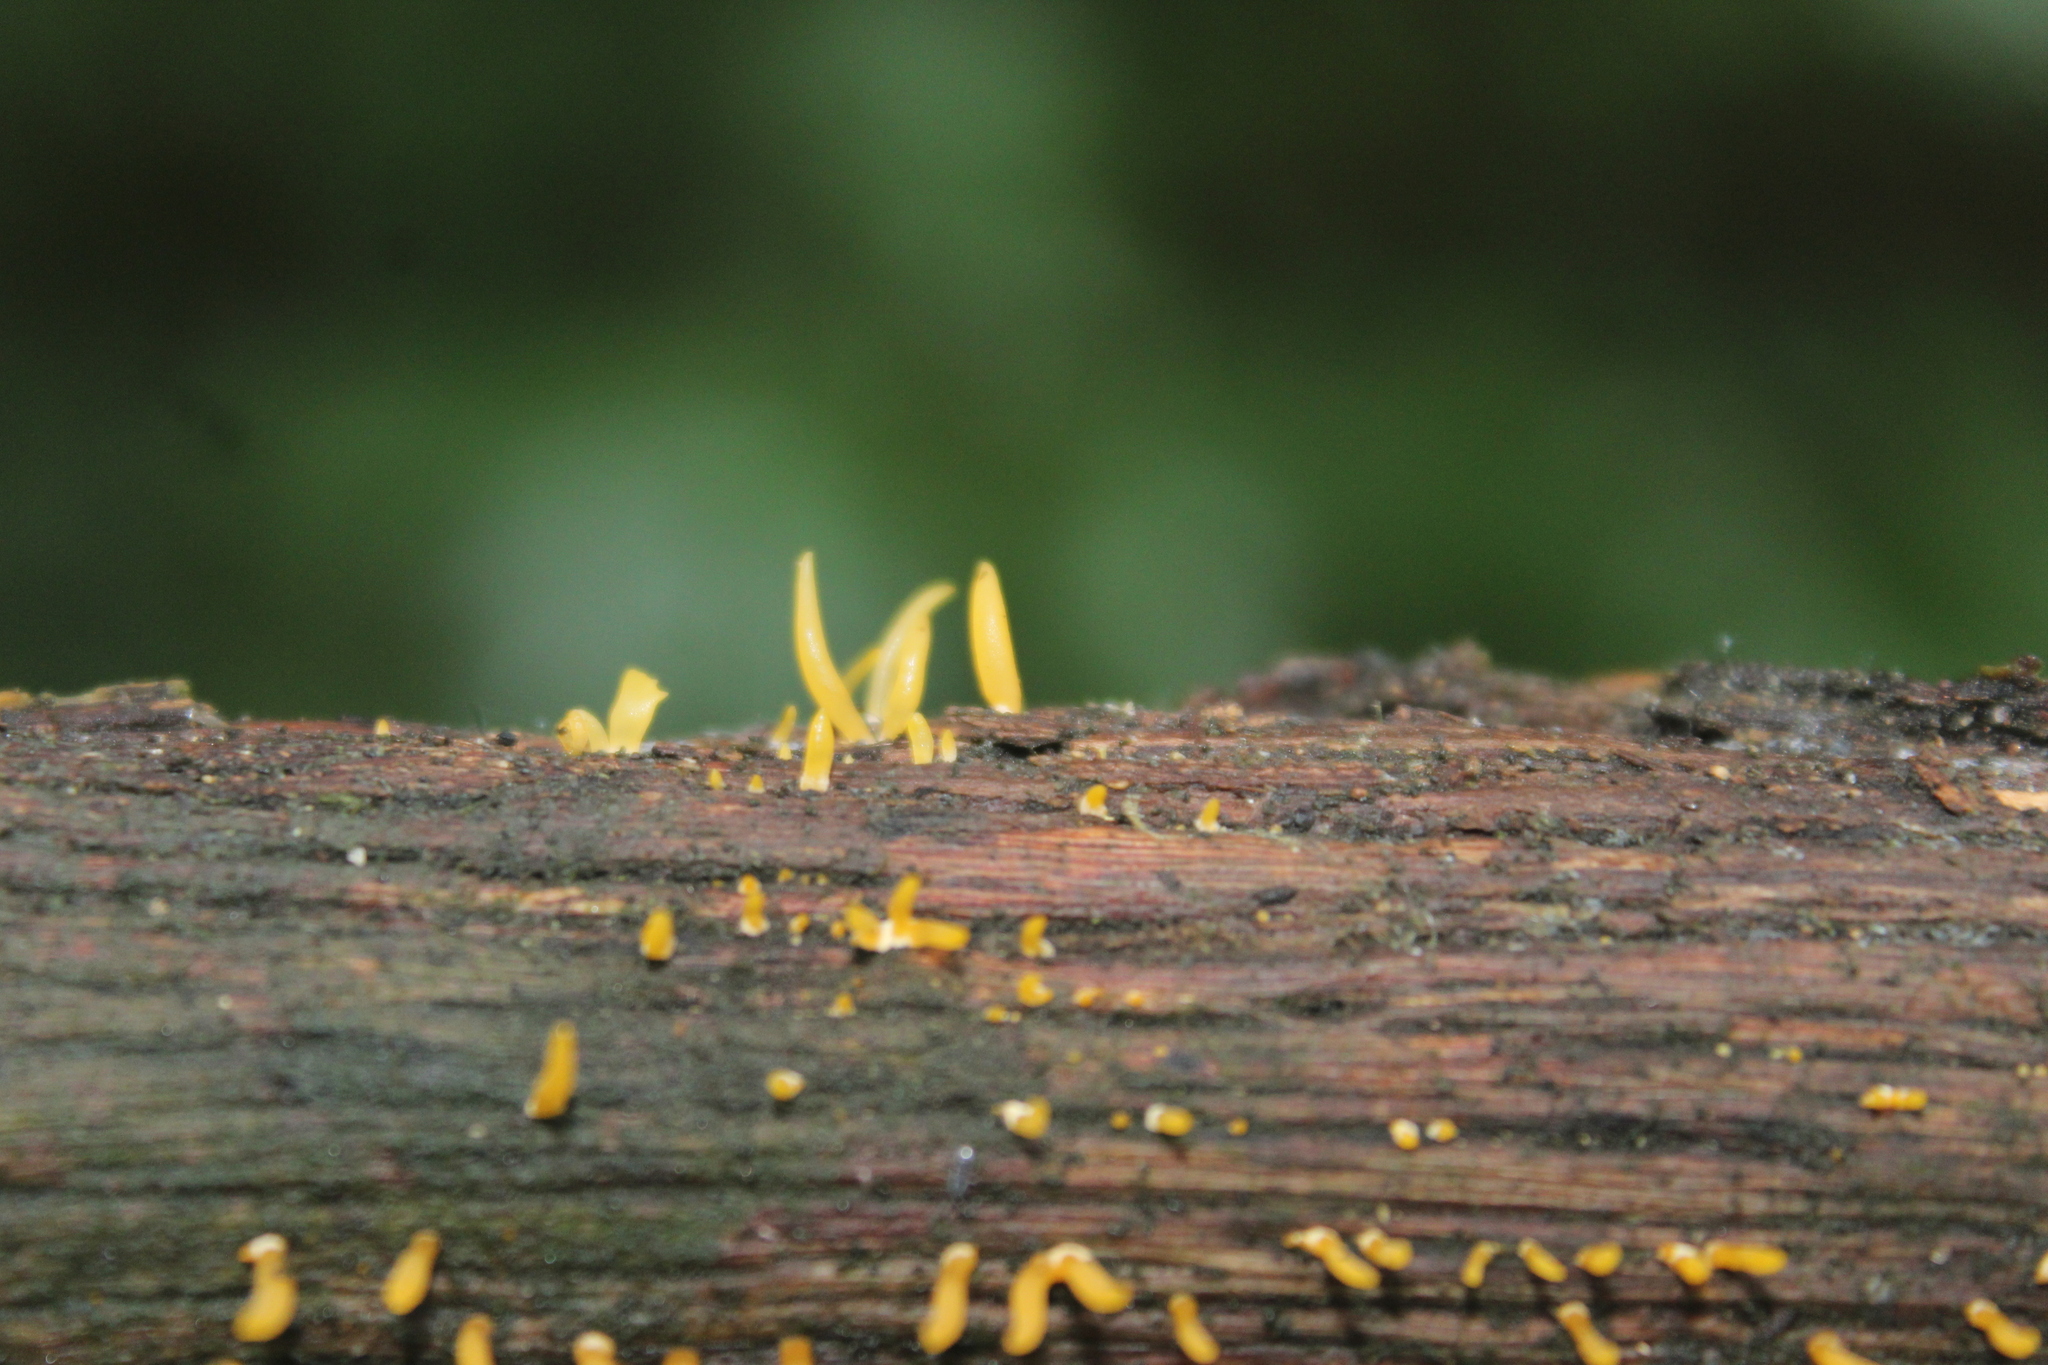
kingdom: Fungi
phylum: Basidiomycota
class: Dacrymycetes
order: Dacrymycetales
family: Dacrymycetaceae
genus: Calocera
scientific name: Calocera cornea
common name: Small stagshorn
